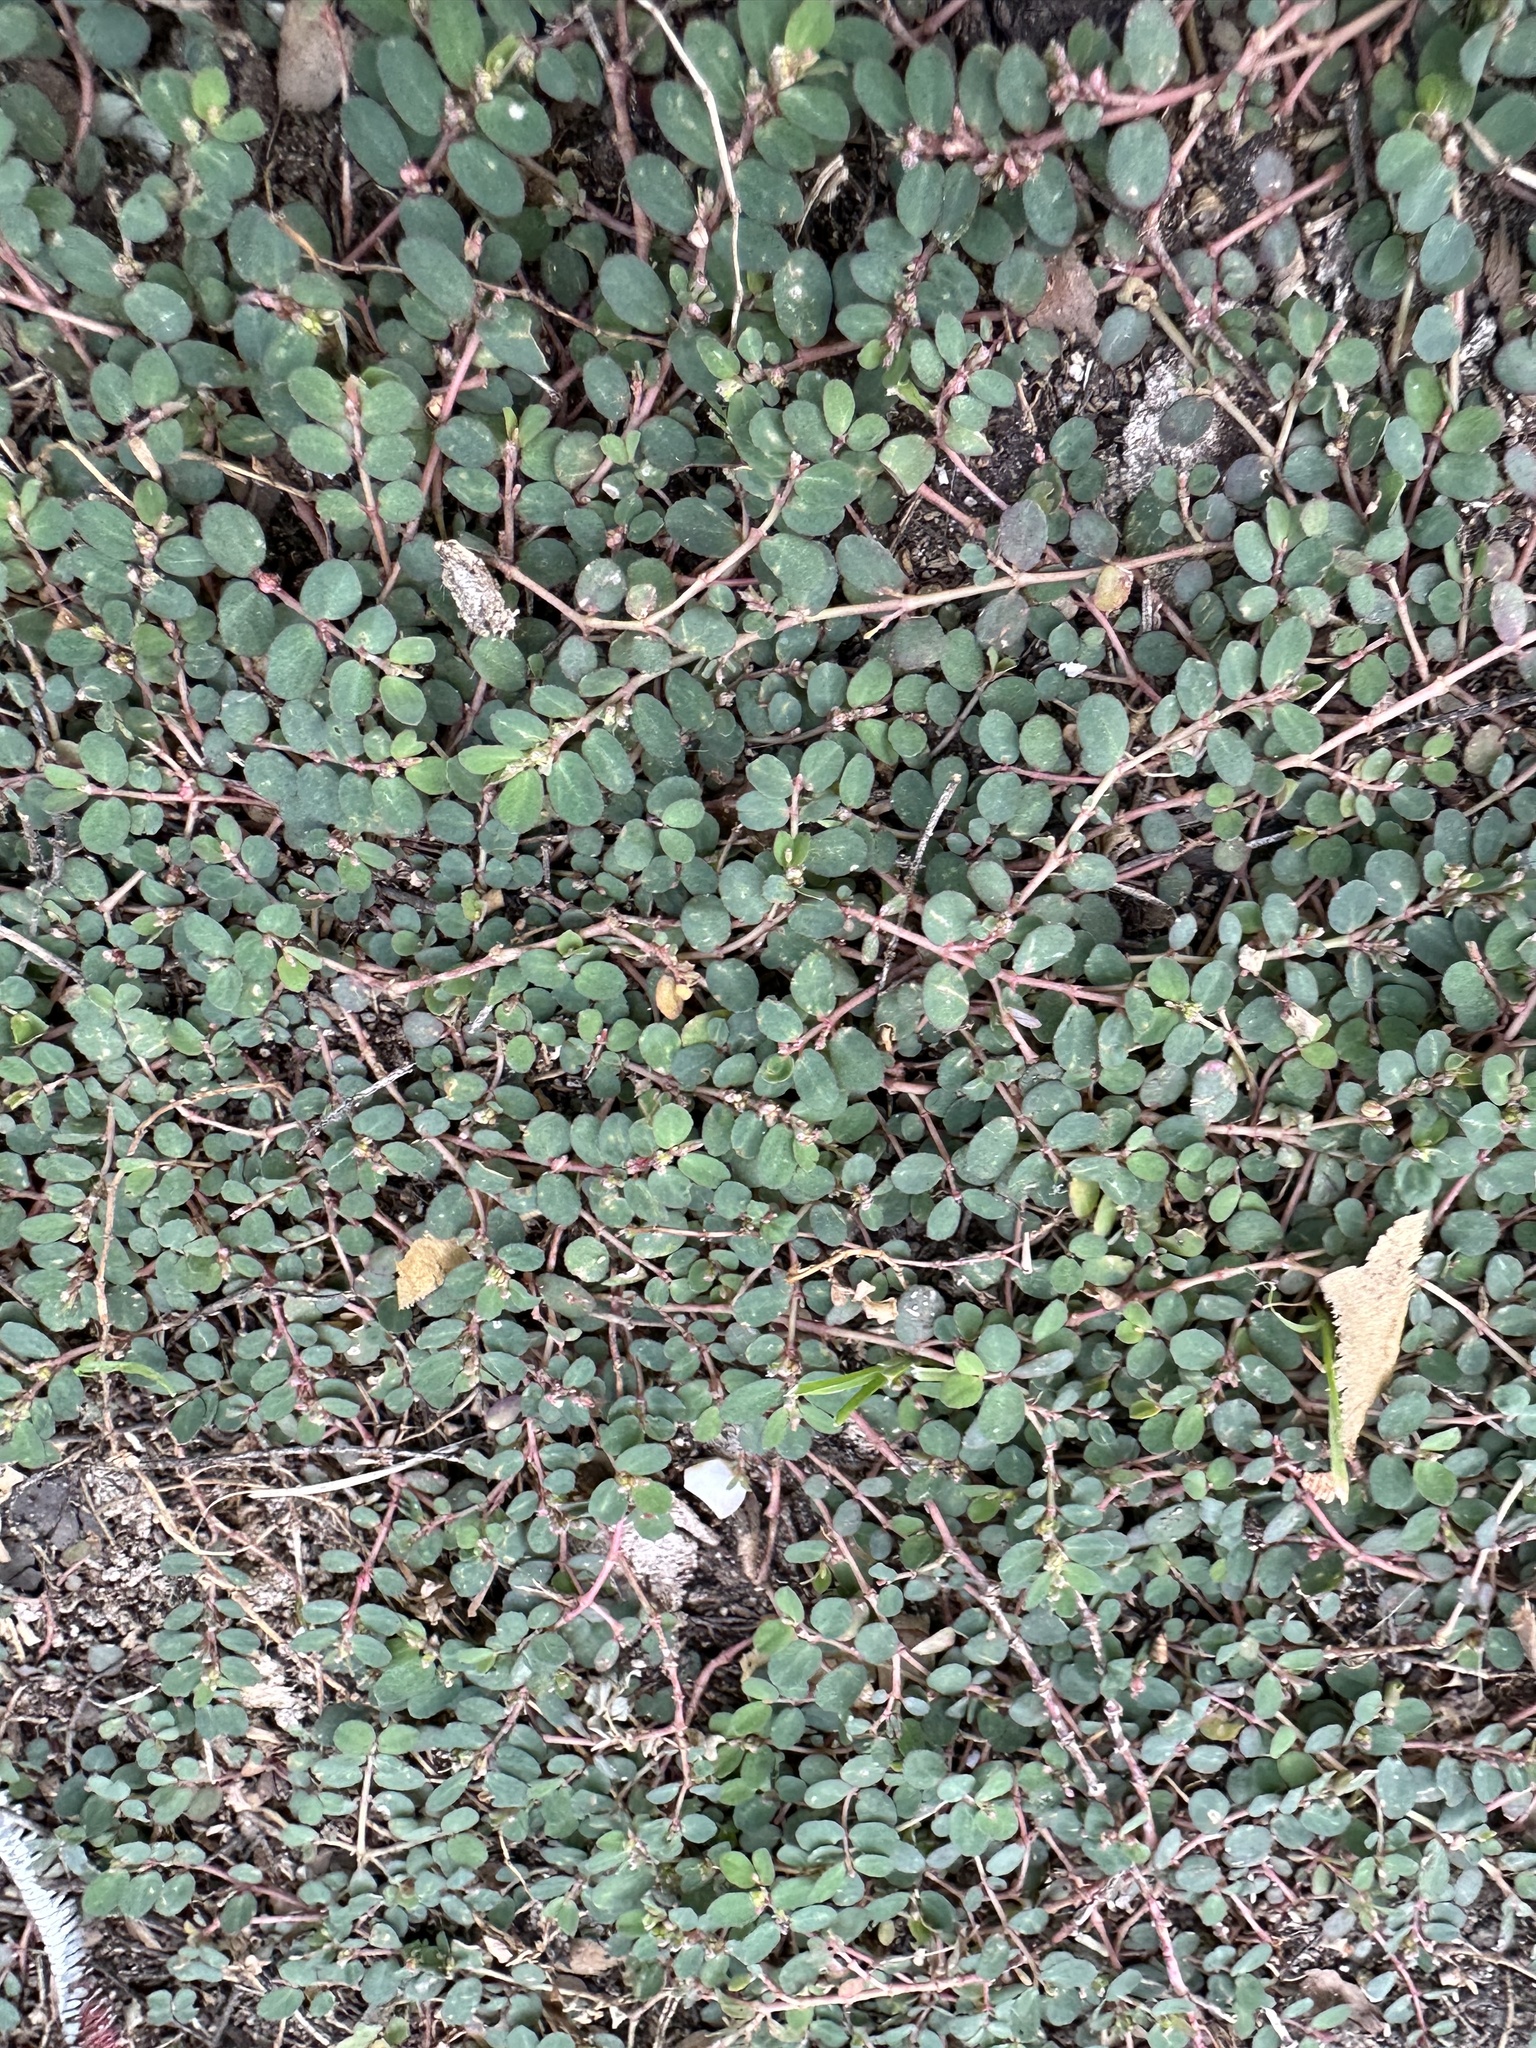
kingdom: Plantae
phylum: Tracheophyta
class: Magnoliopsida
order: Malpighiales
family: Euphorbiaceae
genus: Euphorbia
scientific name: Euphorbia prostrata
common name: Prostrate sandmat
